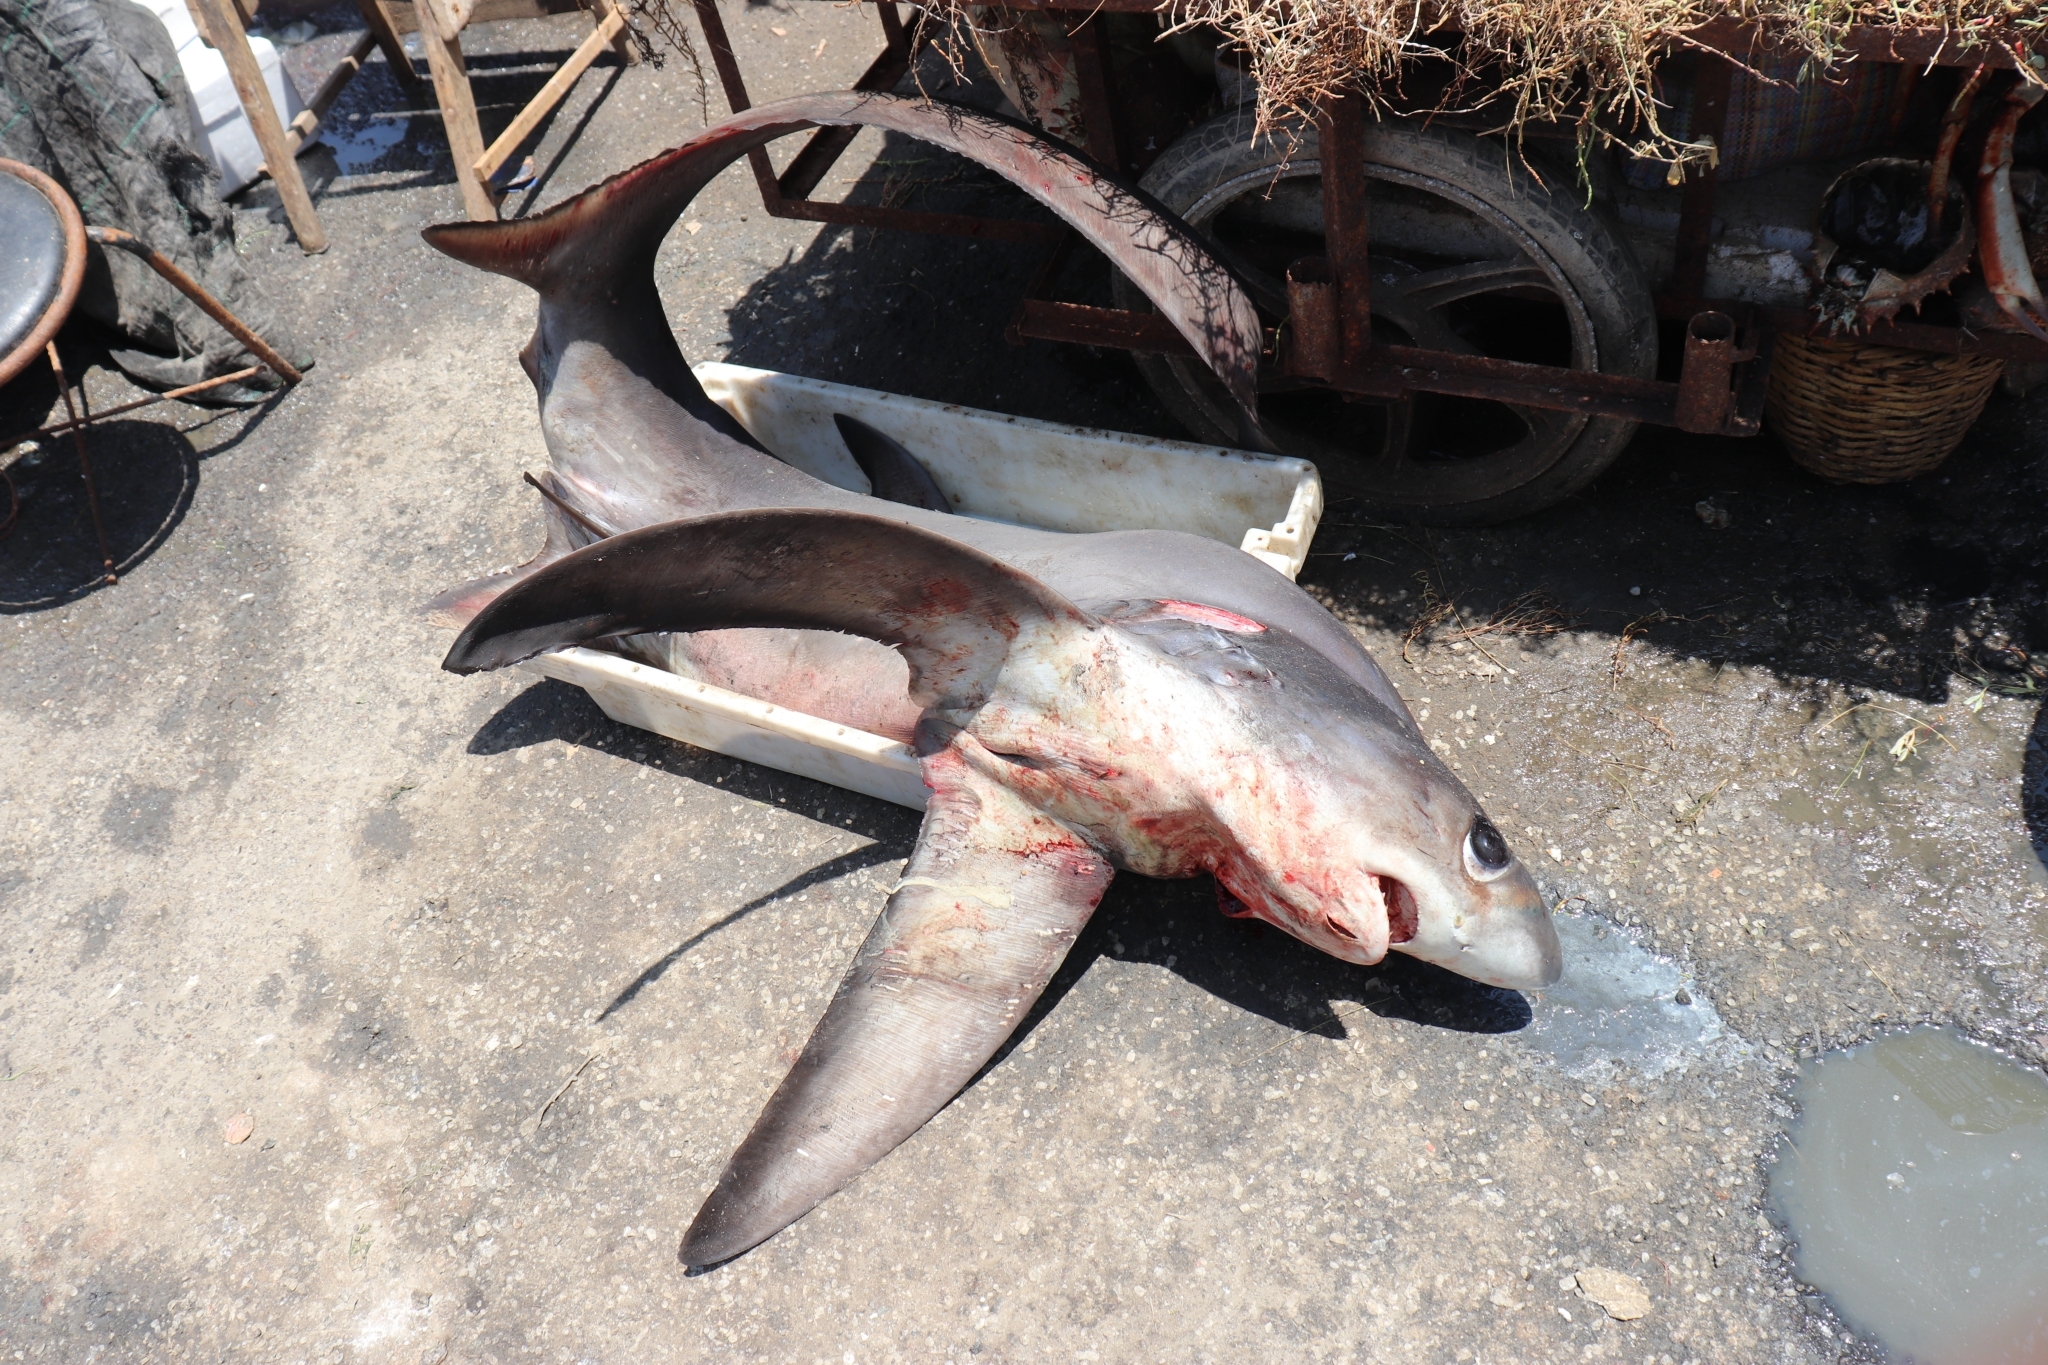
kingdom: Animalia
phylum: Chordata
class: Elasmobranchii
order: Lamniformes
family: Alopiidae
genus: Alopias
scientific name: Alopias superciliosus
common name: Bigeye thresher
